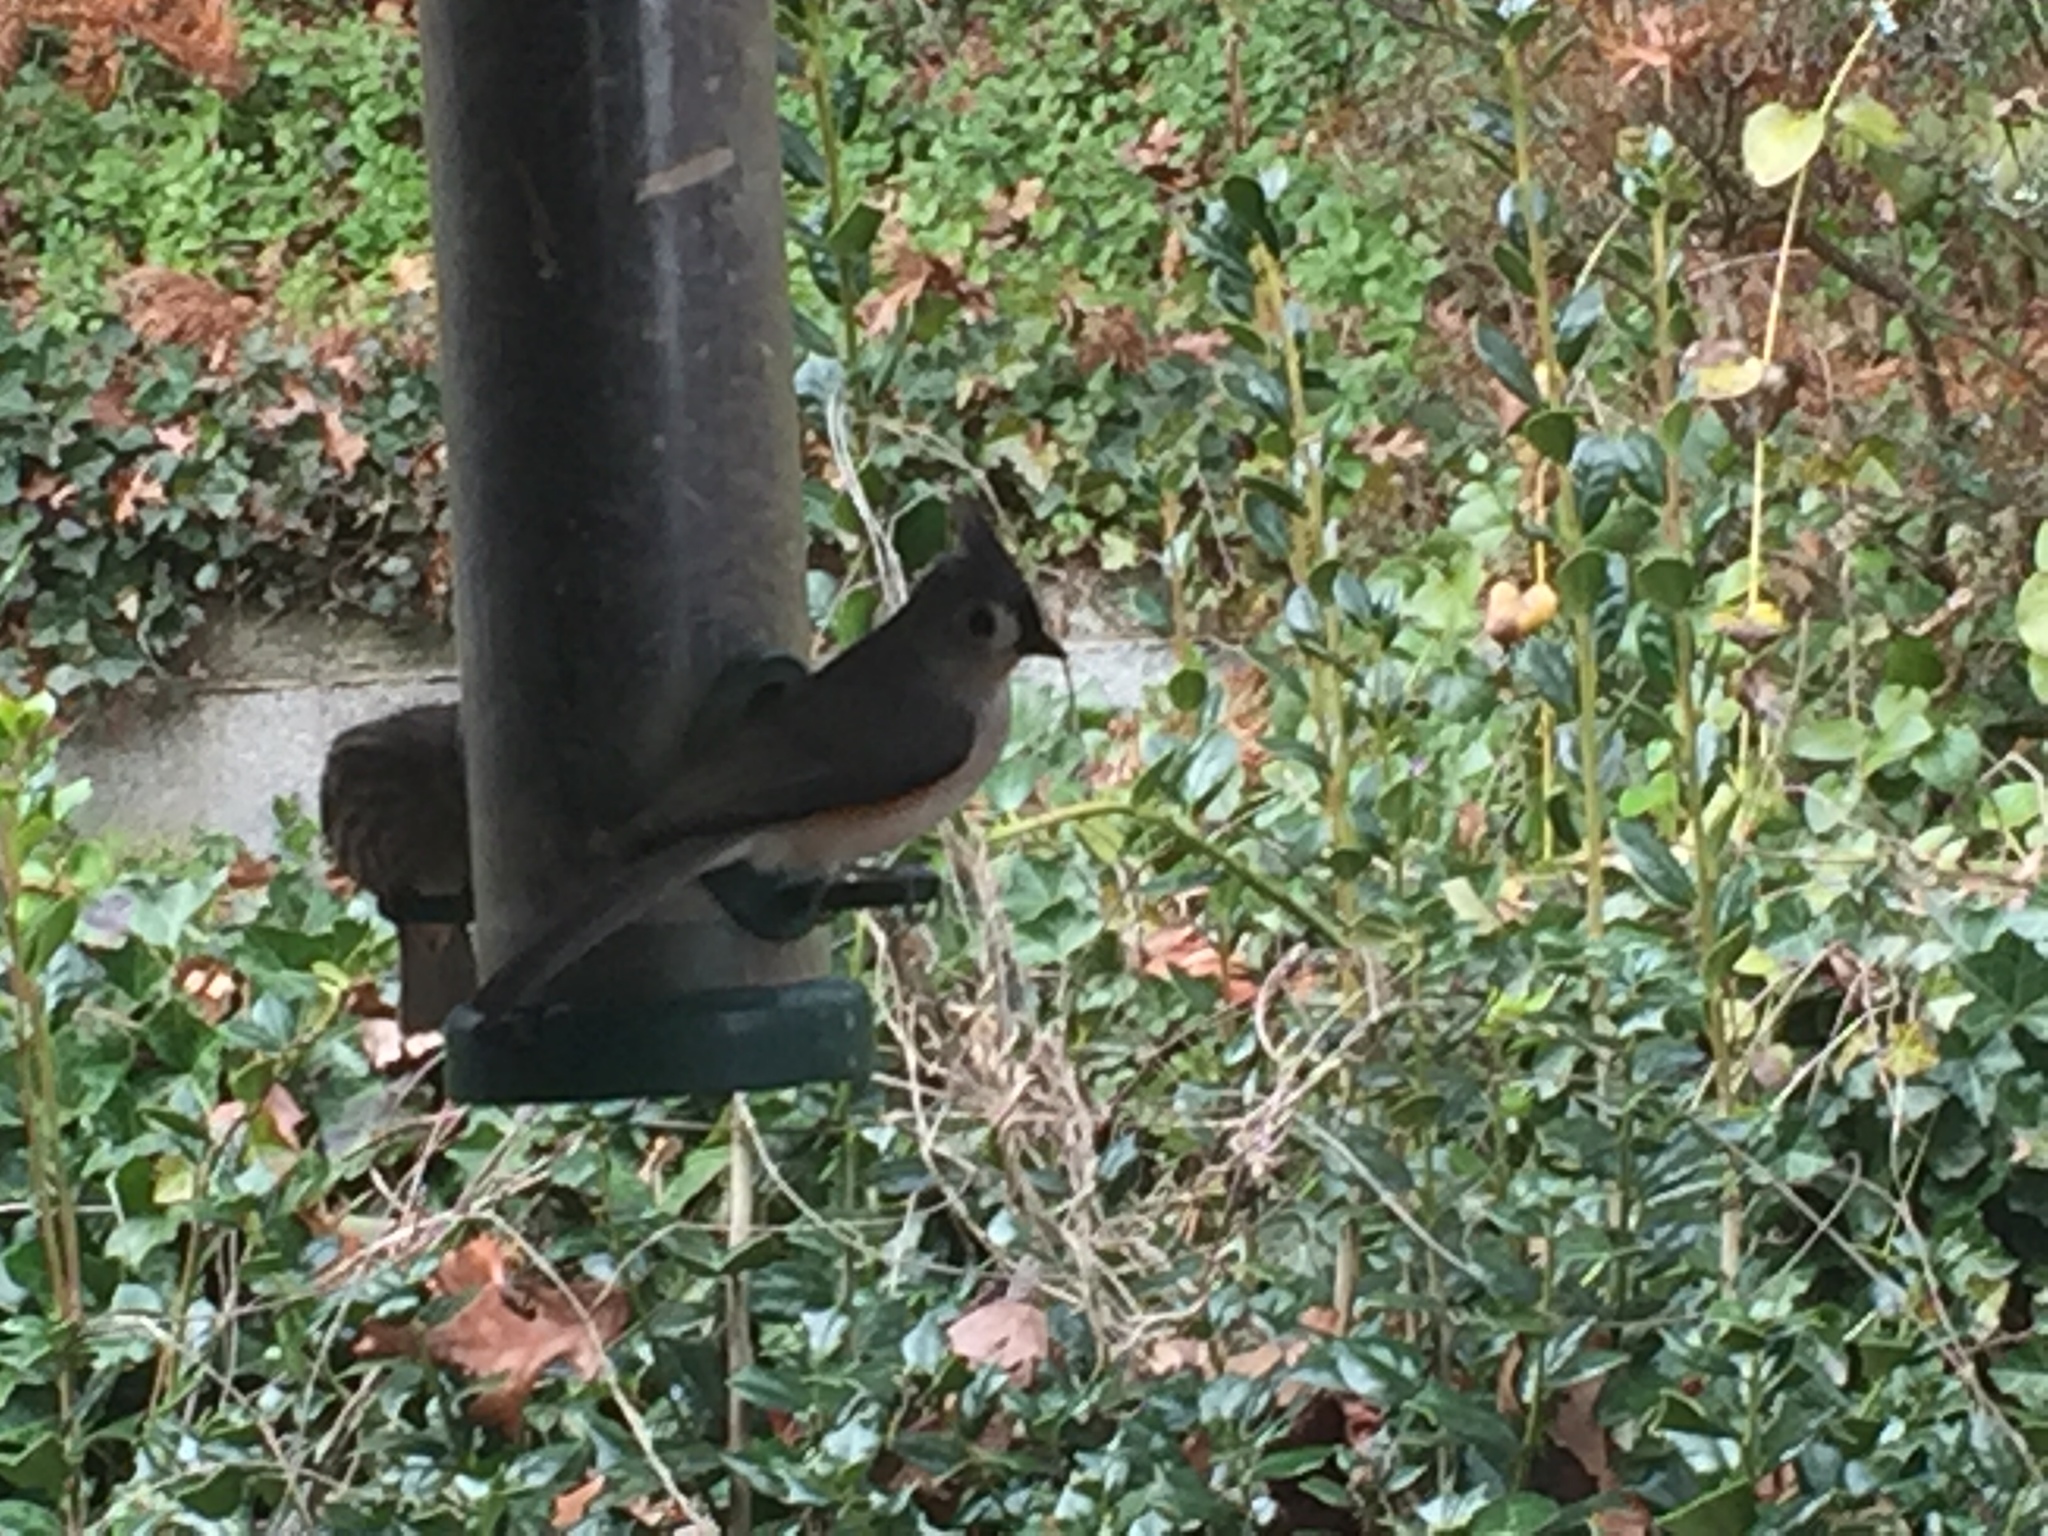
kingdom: Animalia
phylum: Chordata
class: Aves
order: Passeriformes
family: Paridae
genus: Baeolophus
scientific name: Baeolophus bicolor
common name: Tufted titmouse
